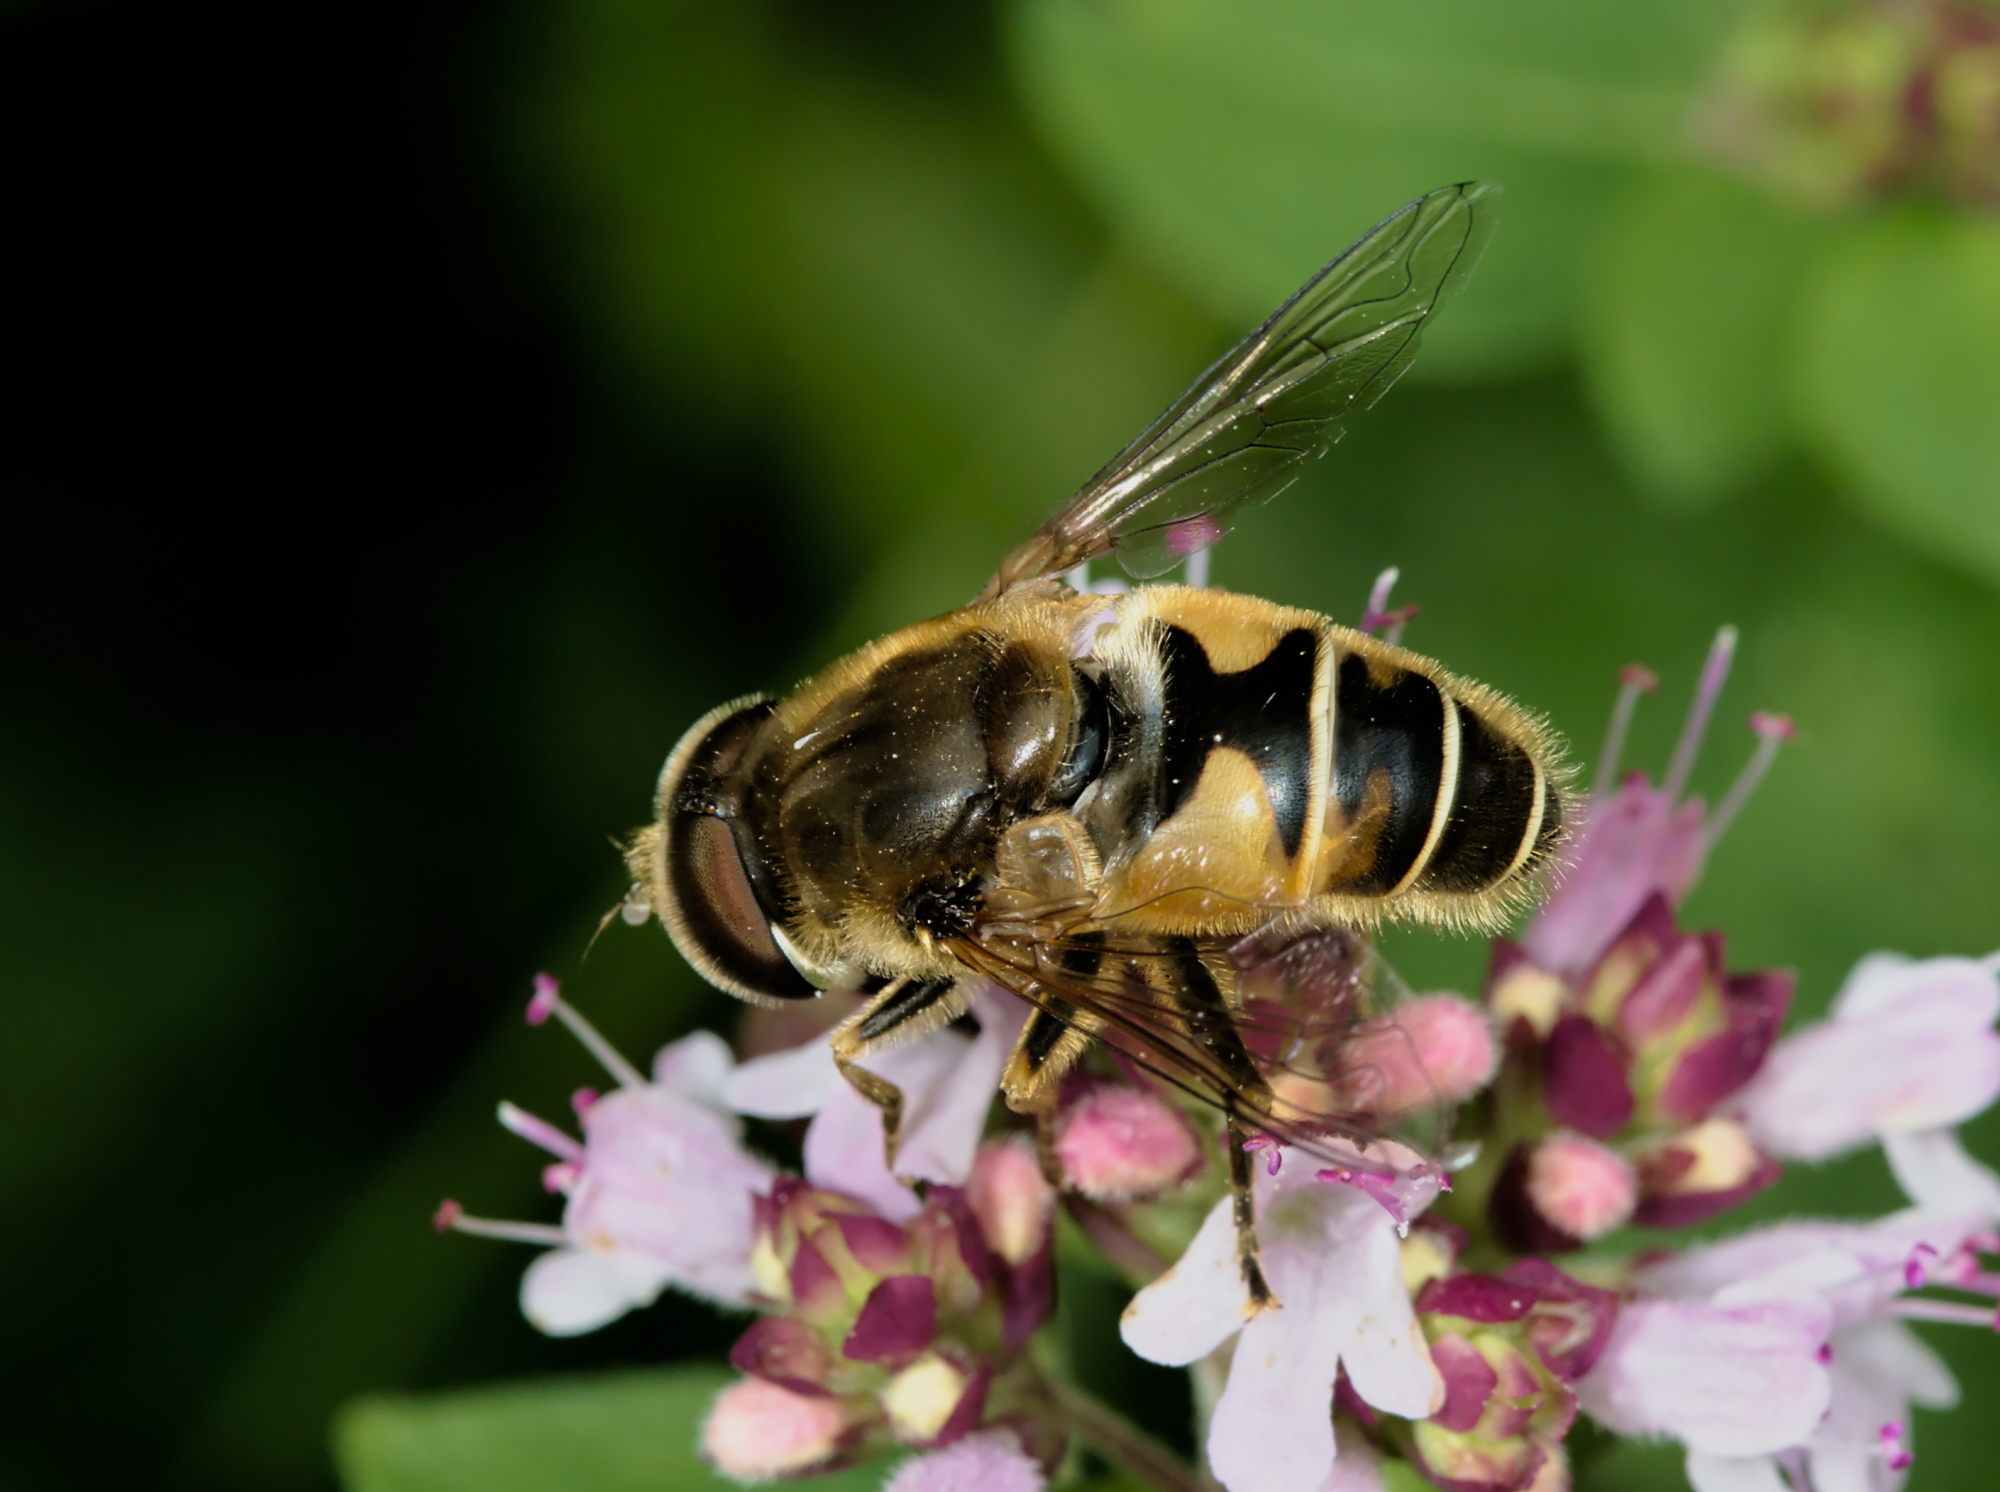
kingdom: Animalia
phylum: Arthropoda
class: Insecta
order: Diptera
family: Syrphidae
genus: Eristalis
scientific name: Eristalis nemorum
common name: Orange-spined drone fly
